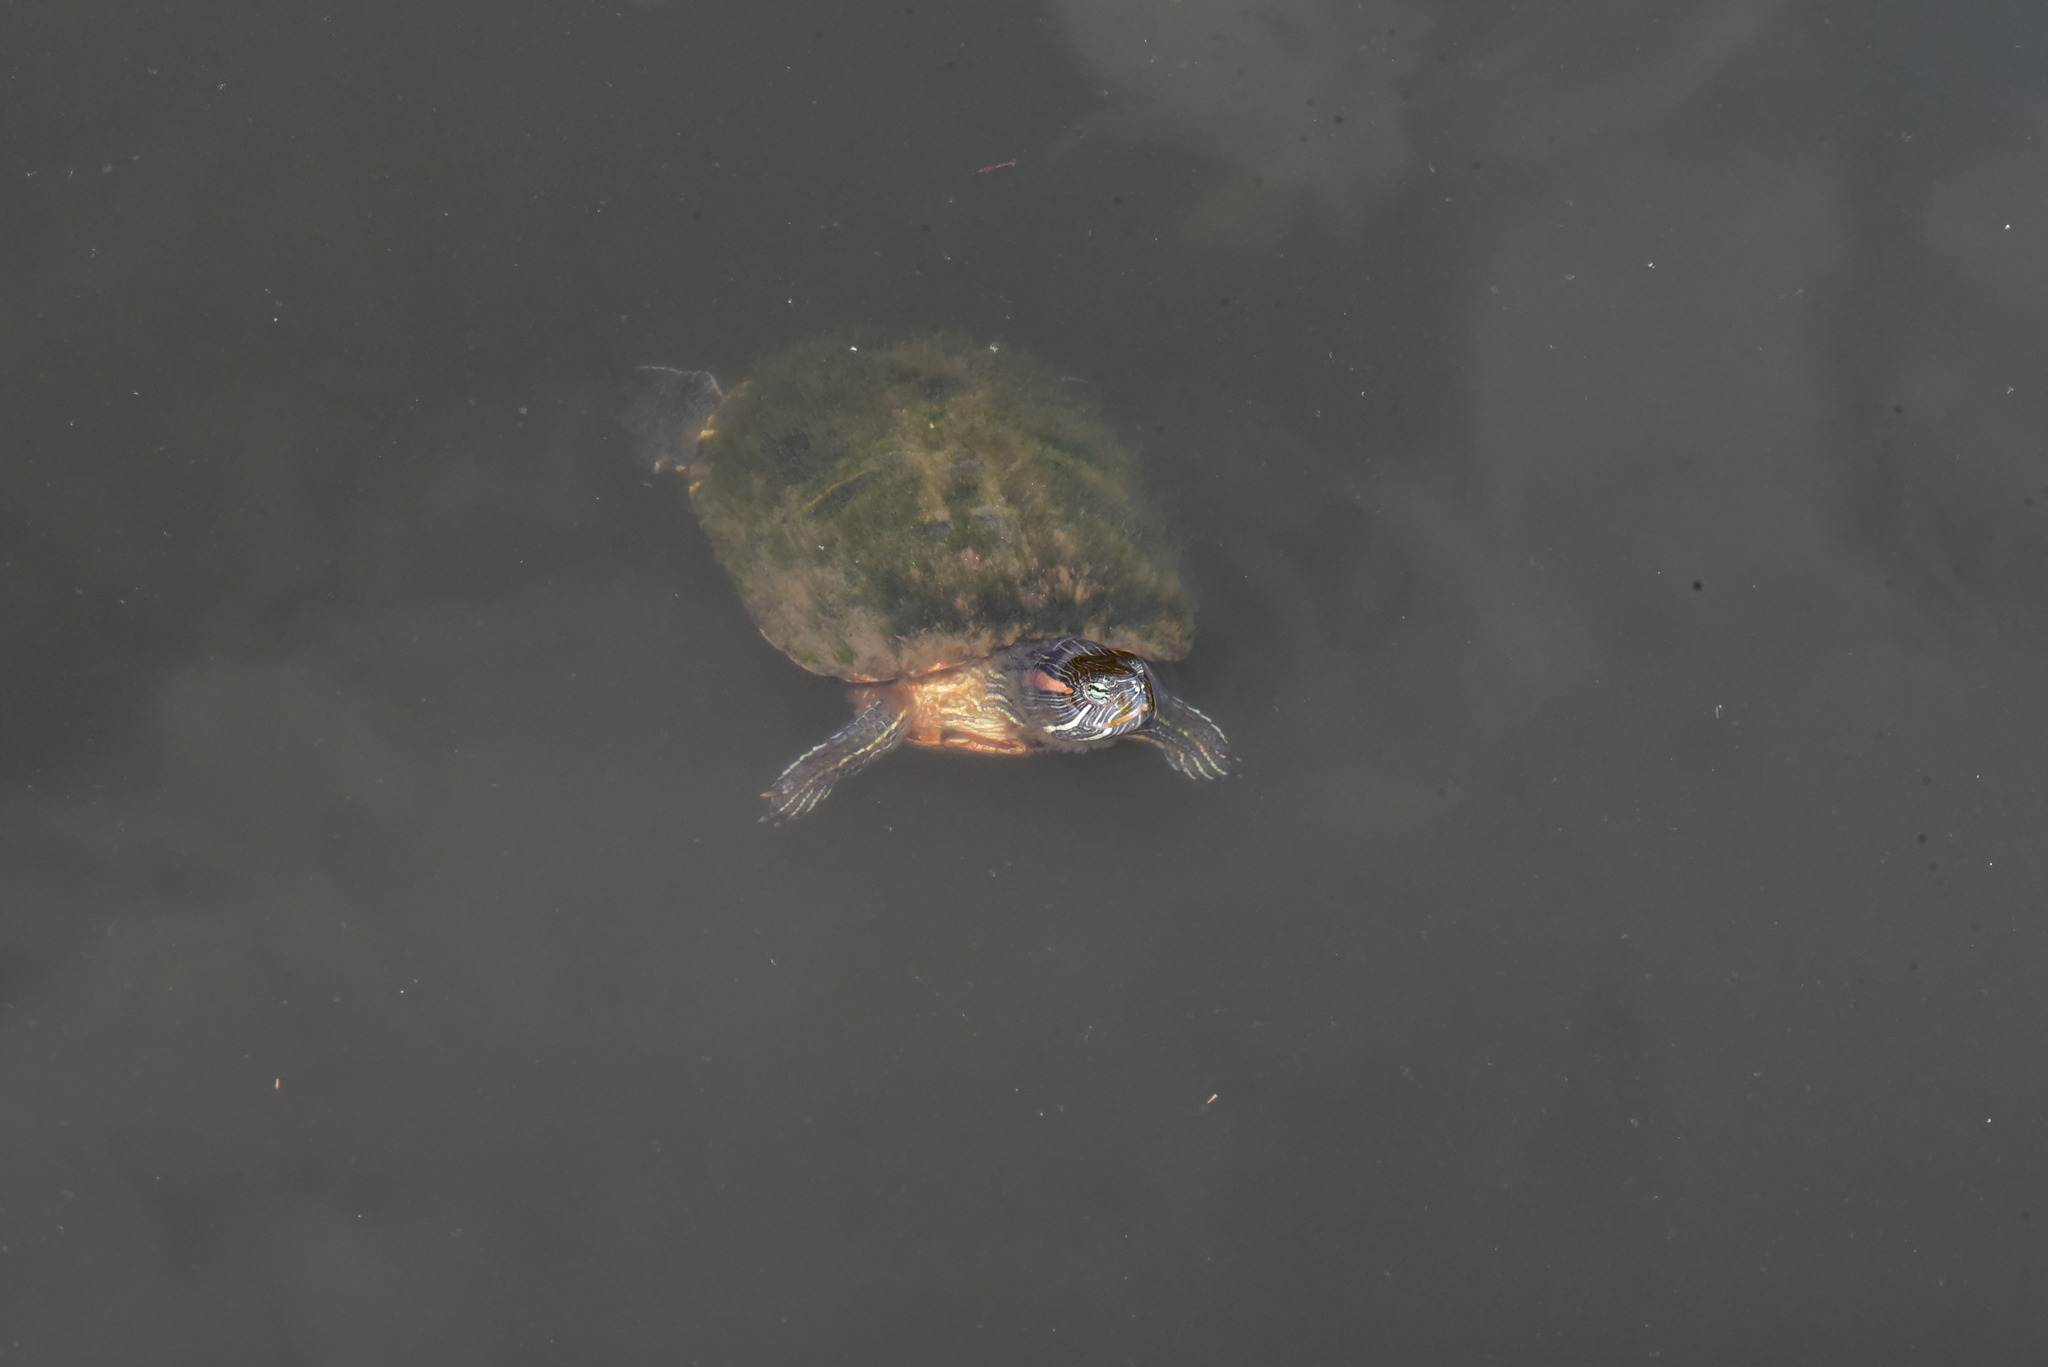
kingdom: Animalia
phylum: Chordata
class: Testudines
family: Emydidae
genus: Trachemys
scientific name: Trachemys scripta
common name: Slider
